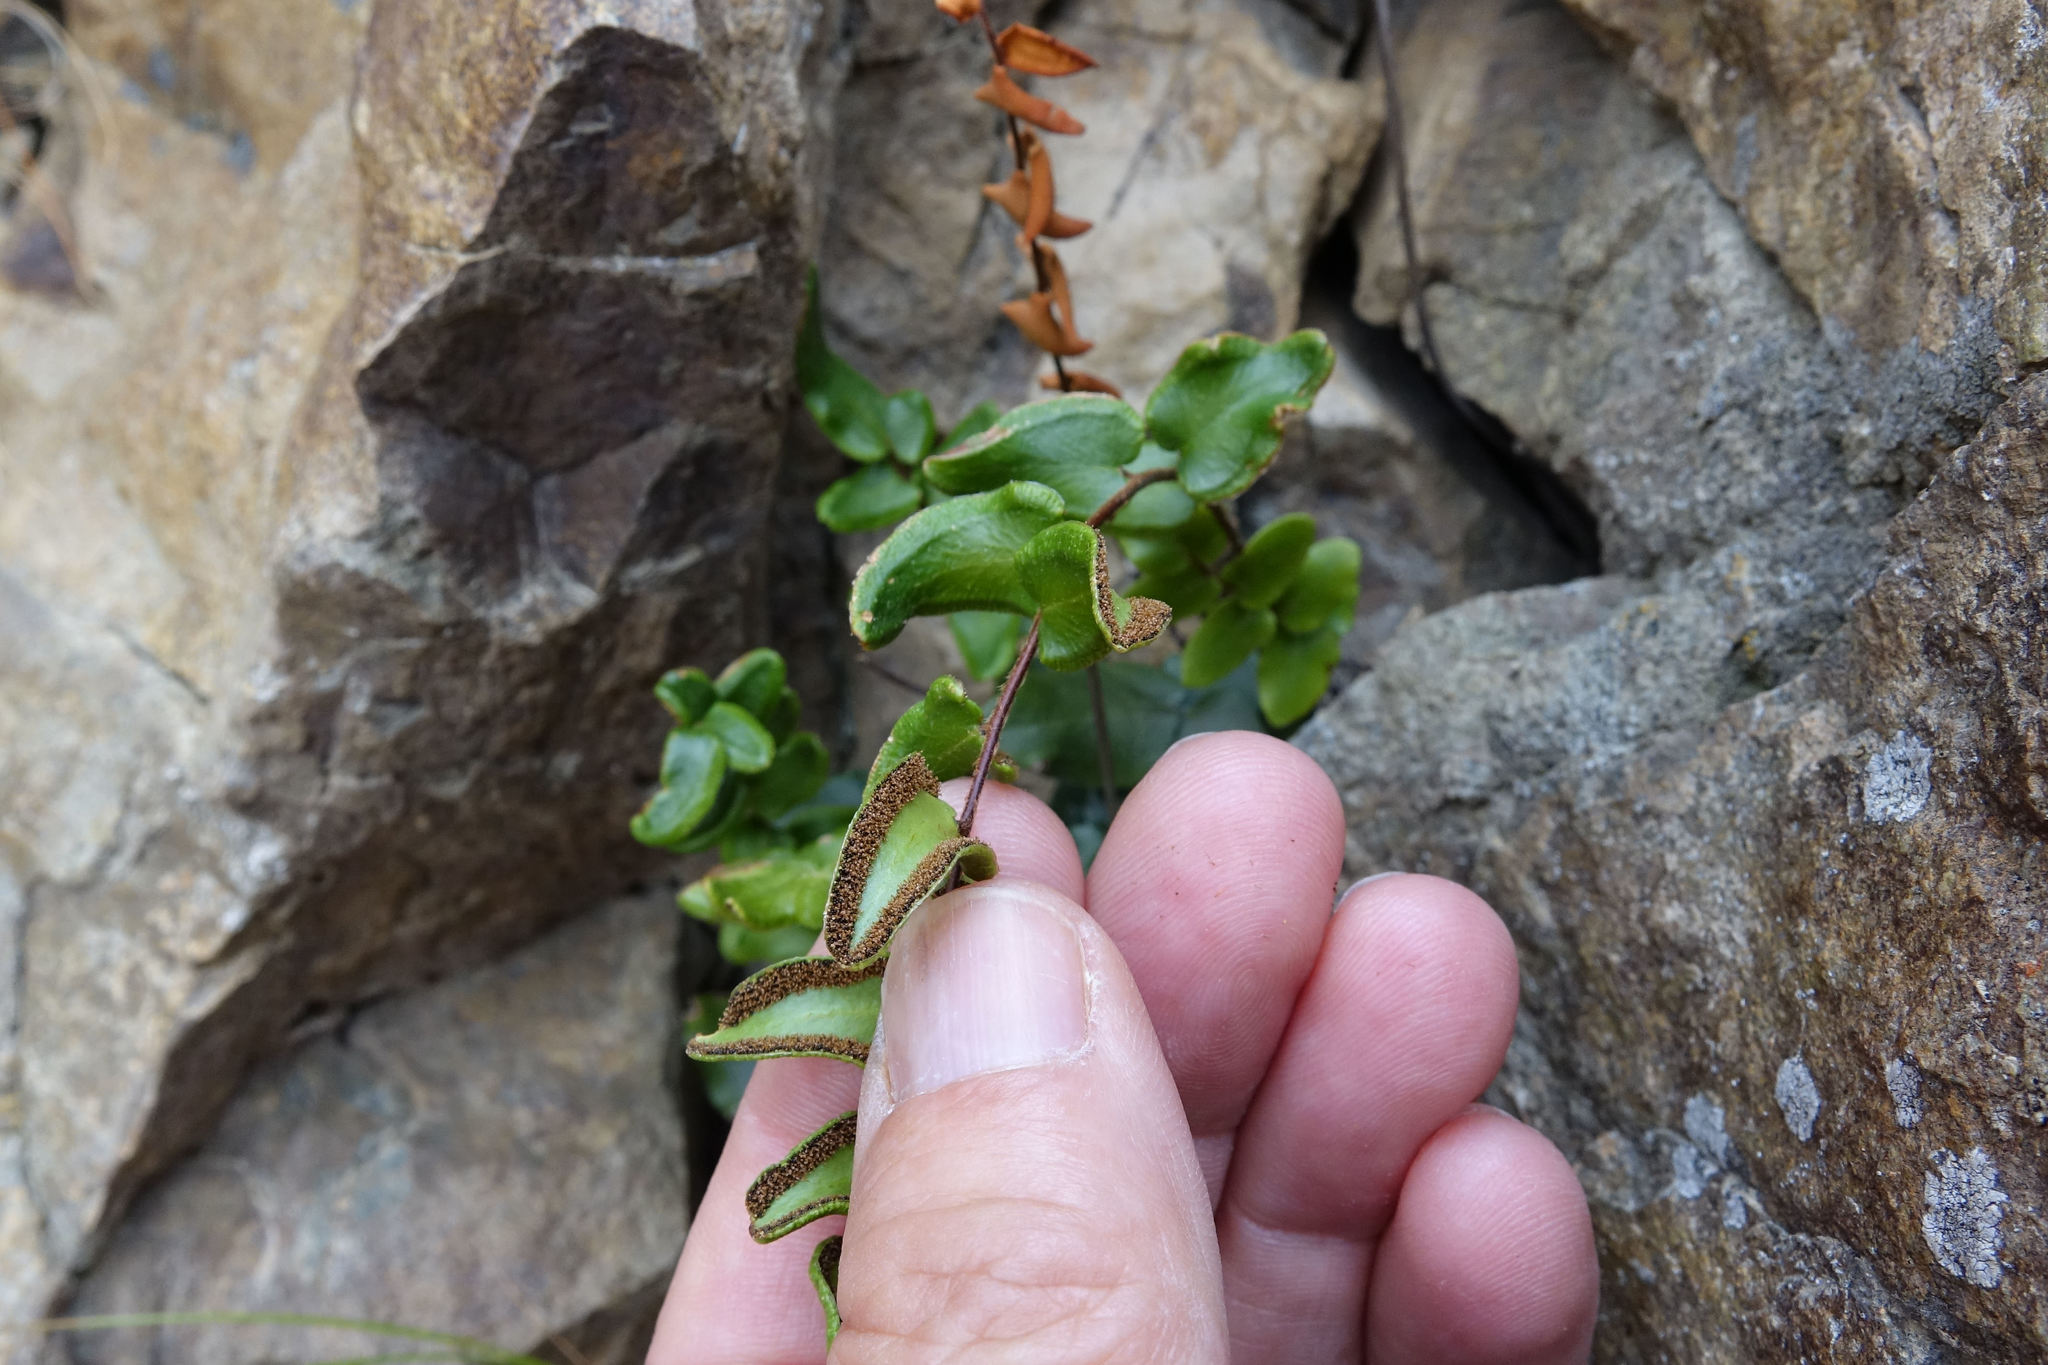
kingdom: Plantae
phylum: Tracheophyta
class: Polypodiopsida
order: Polypodiales
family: Pteridaceae
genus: Pellaea
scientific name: Pellaea calidirupium
